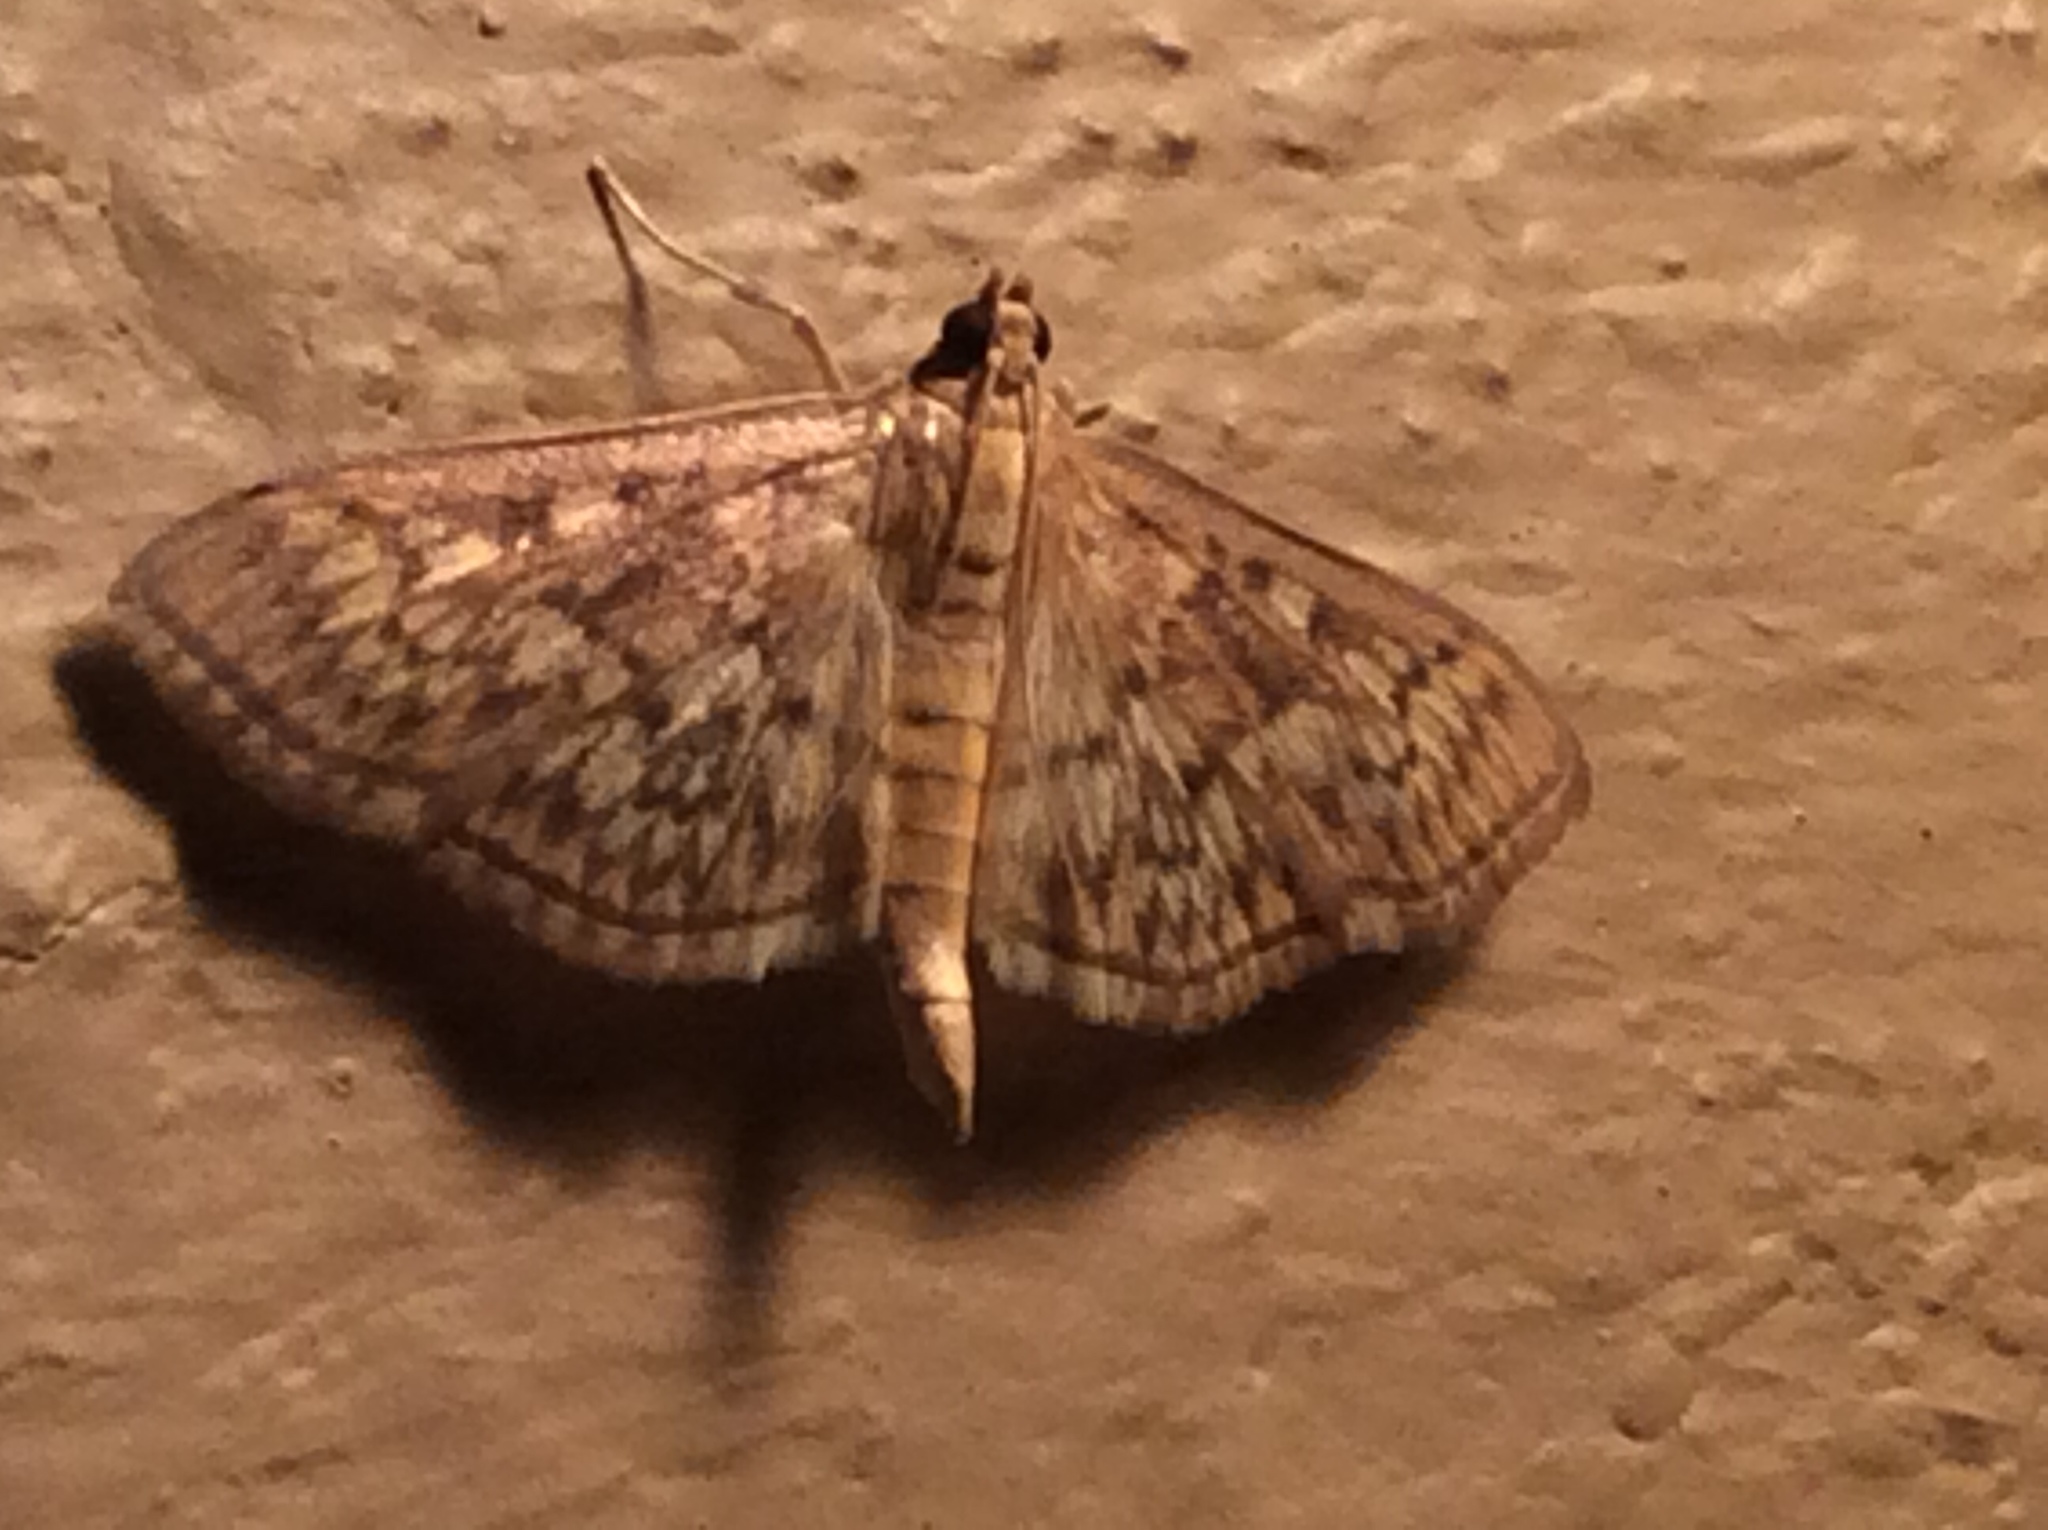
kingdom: Animalia
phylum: Arthropoda
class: Insecta
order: Lepidoptera
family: Crambidae
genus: Herpetogramma
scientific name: Herpetogramma pertextalis
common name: Bold-feathered grass moth
